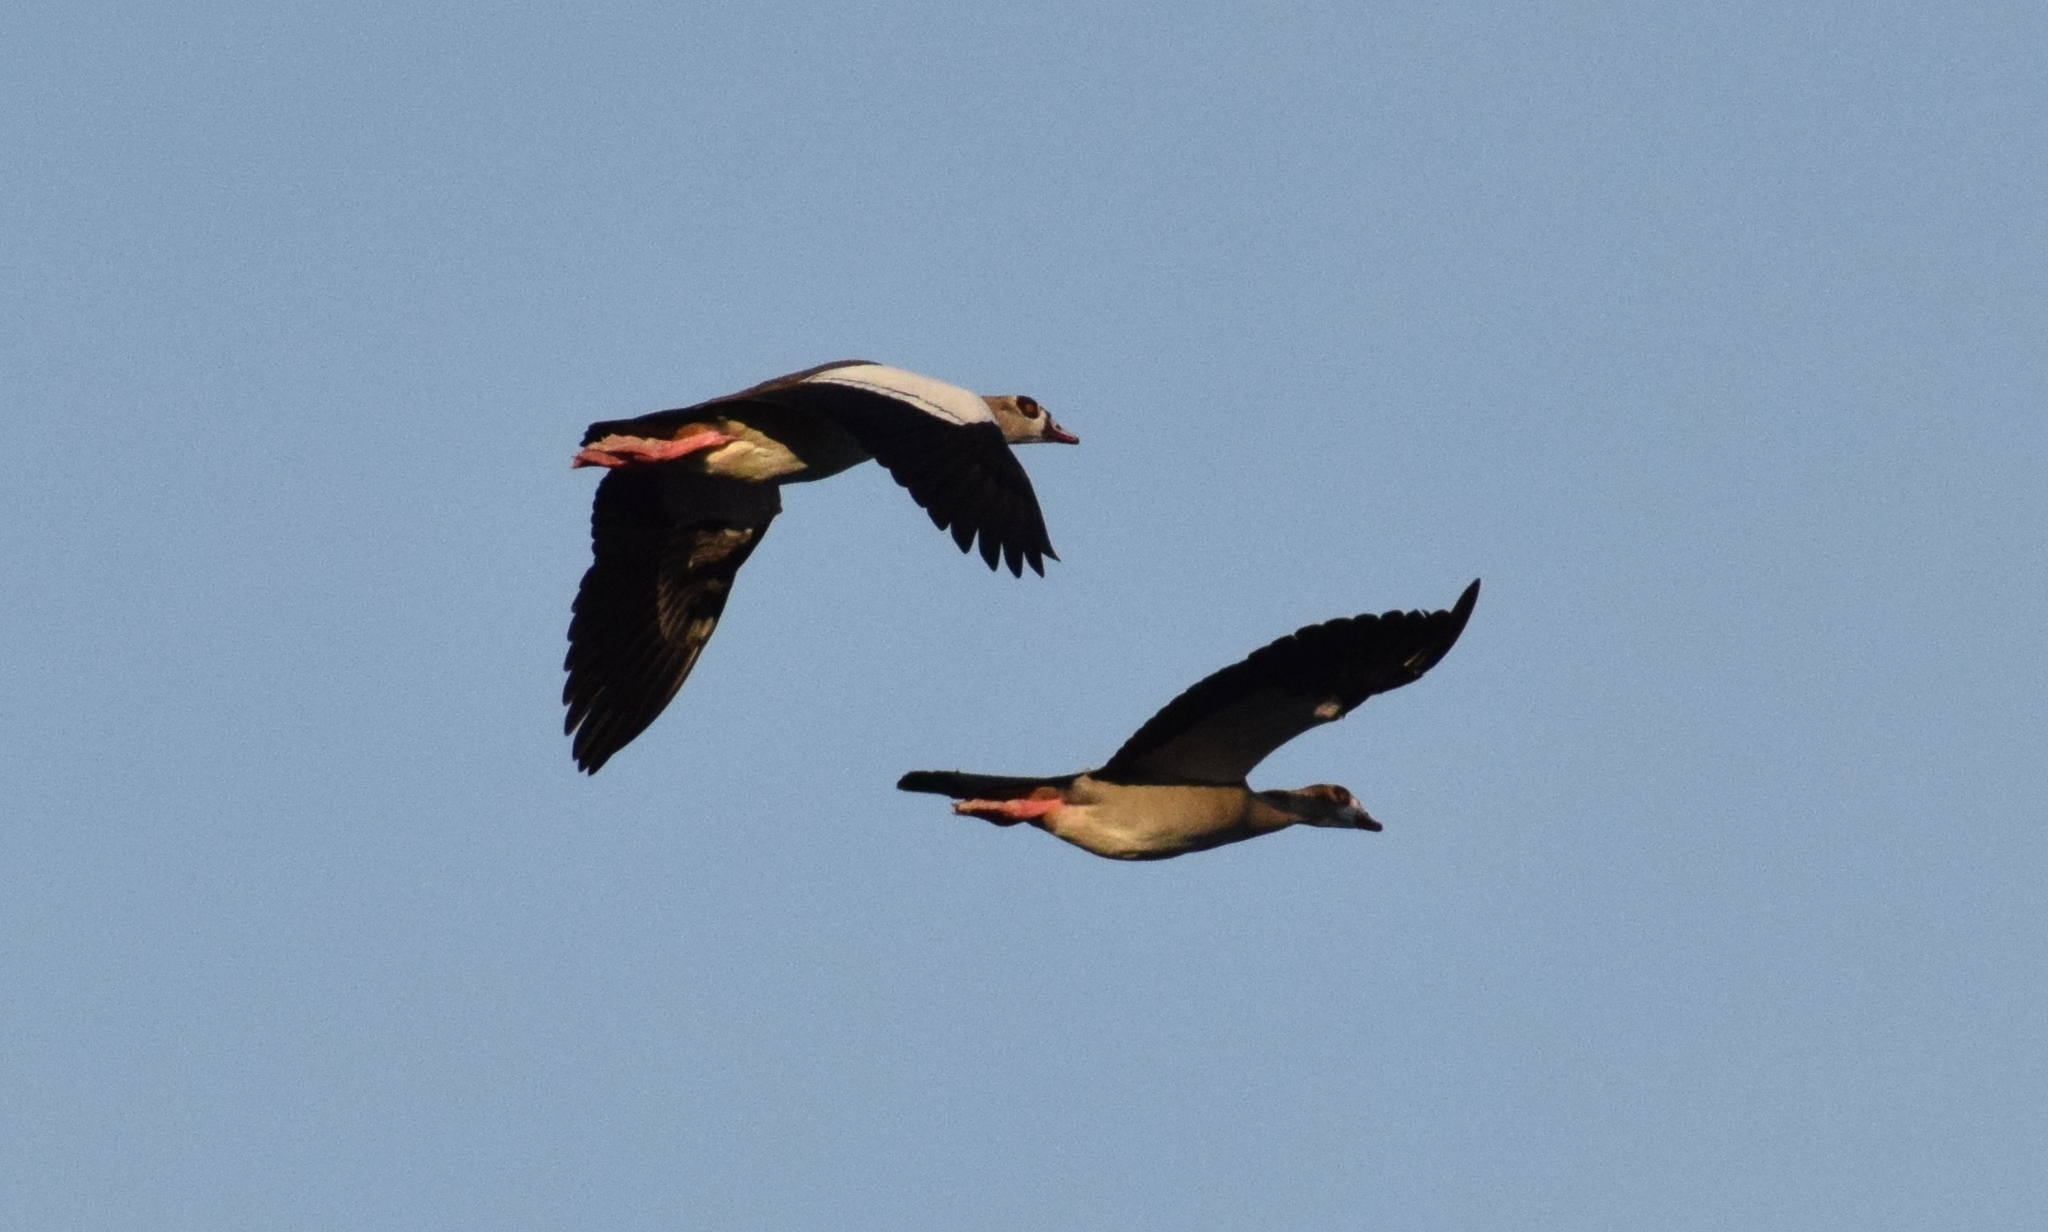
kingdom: Animalia
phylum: Chordata
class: Aves
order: Anseriformes
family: Anatidae
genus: Alopochen
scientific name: Alopochen aegyptiaca
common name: Egyptian goose
